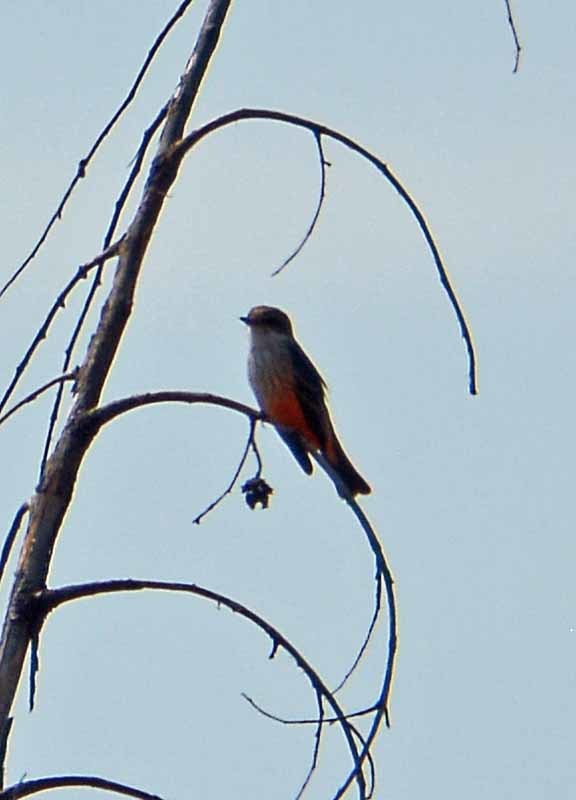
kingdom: Animalia
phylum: Chordata
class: Aves
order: Passeriformes
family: Tyrannidae
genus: Pyrocephalus
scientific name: Pyrocephalus rubinus
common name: Vermilion flycatcher
